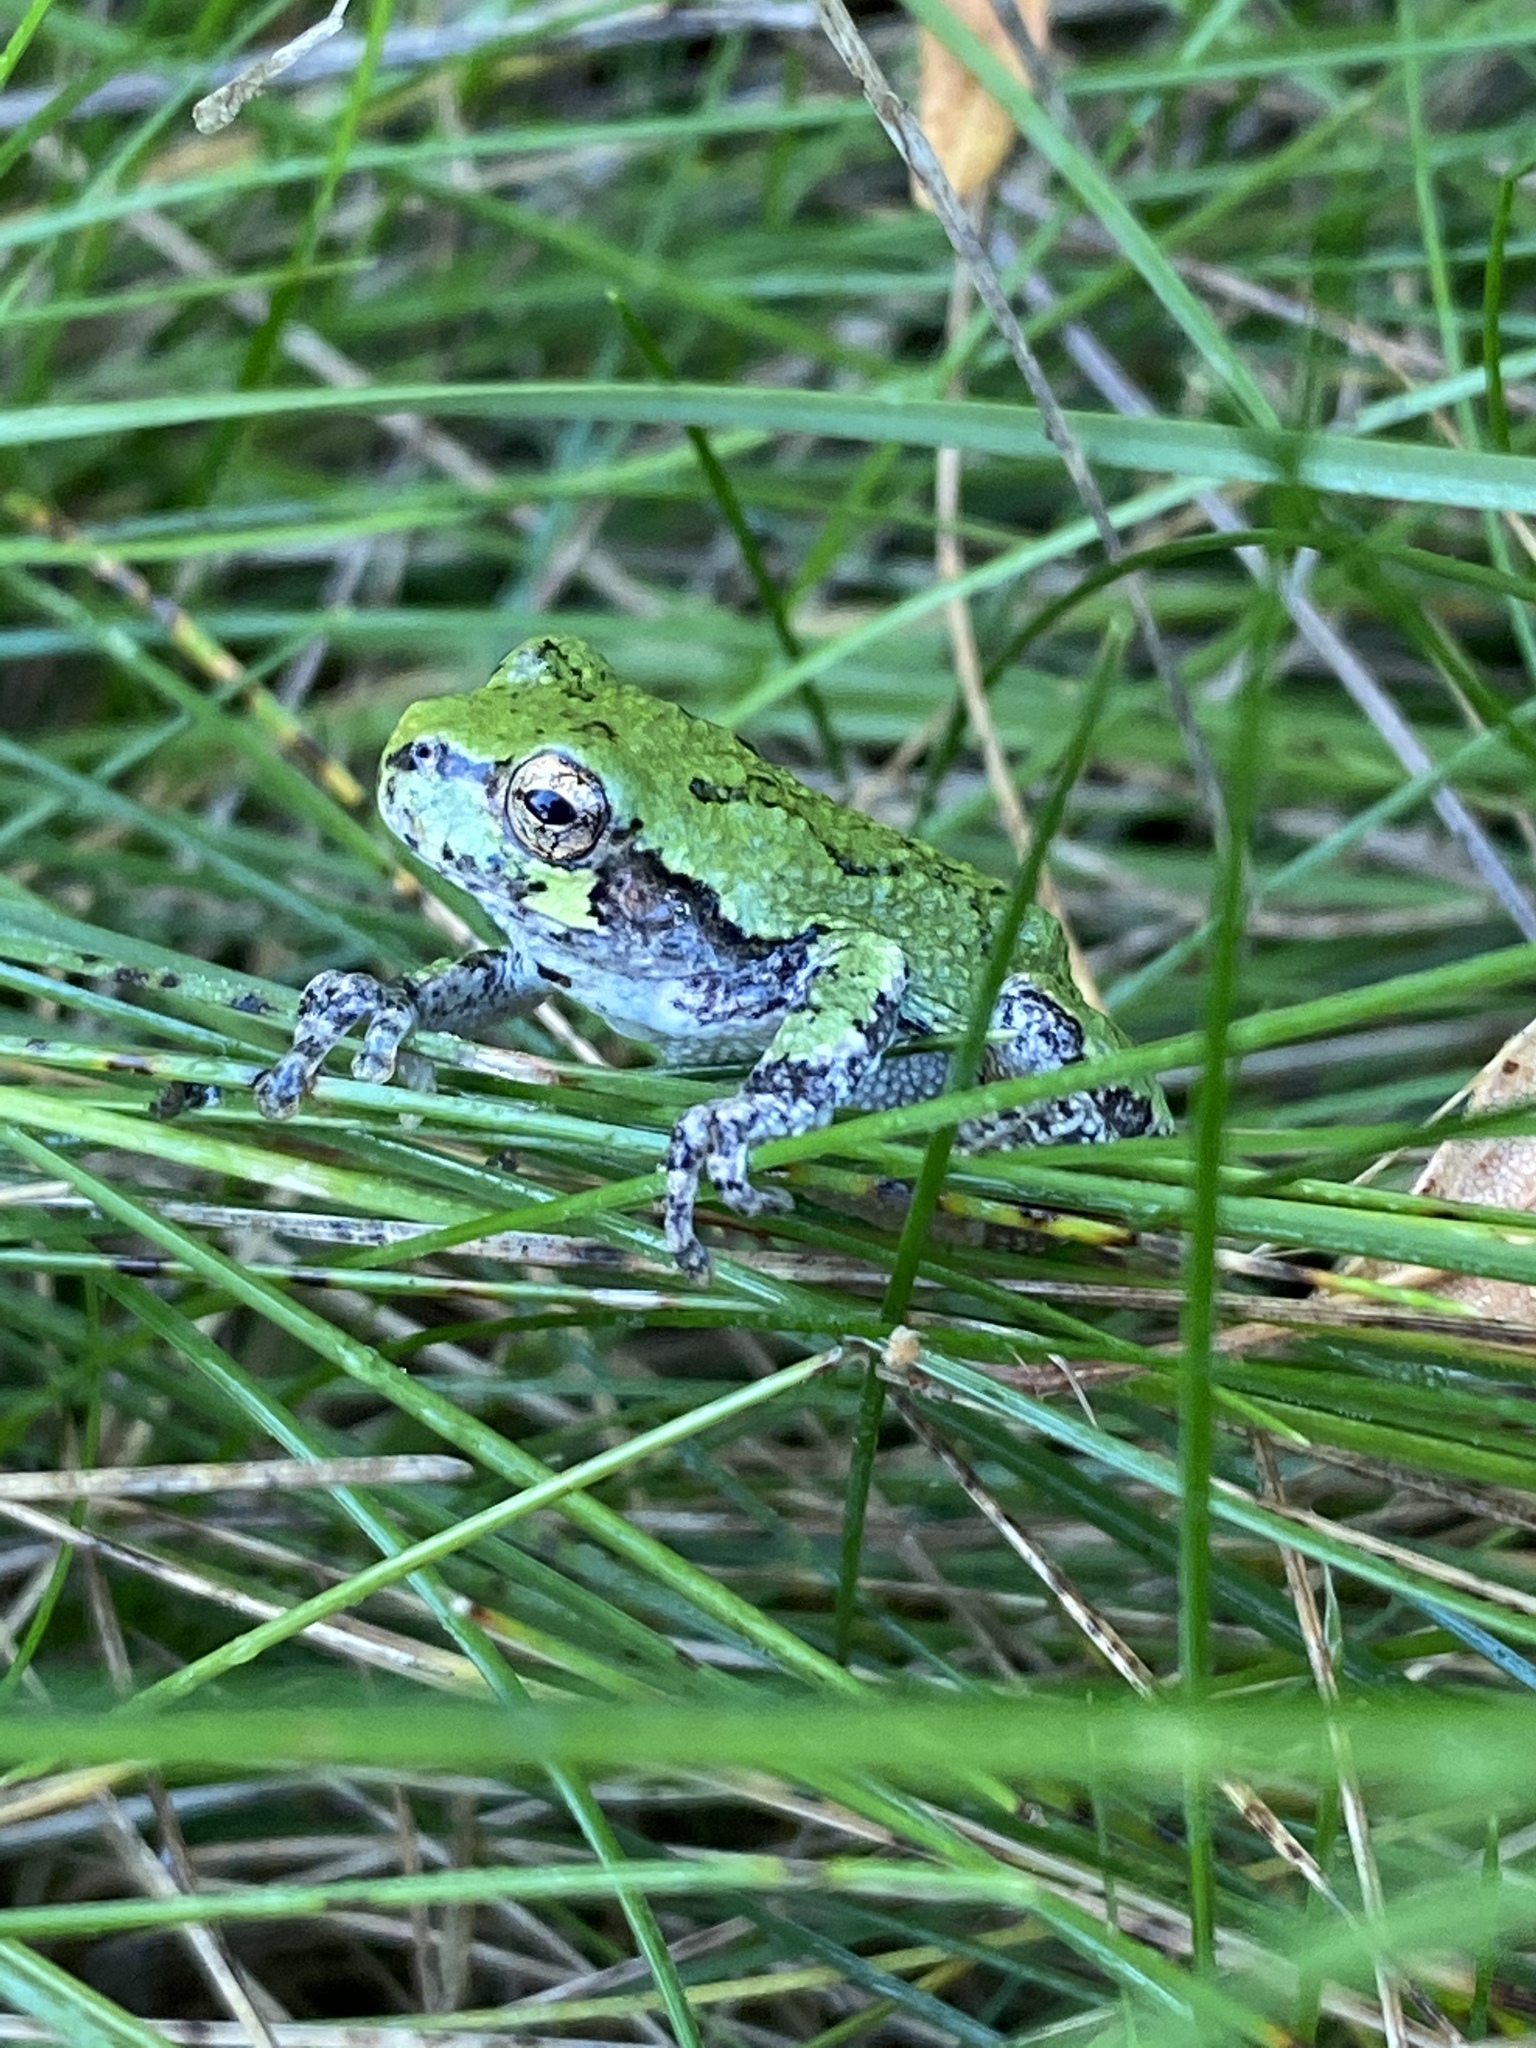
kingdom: Animalia
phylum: Chordata
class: Amphibia
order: Anura
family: Hylidae
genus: Dryophytes
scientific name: Dryophytes versicolor
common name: Gray treefrog
